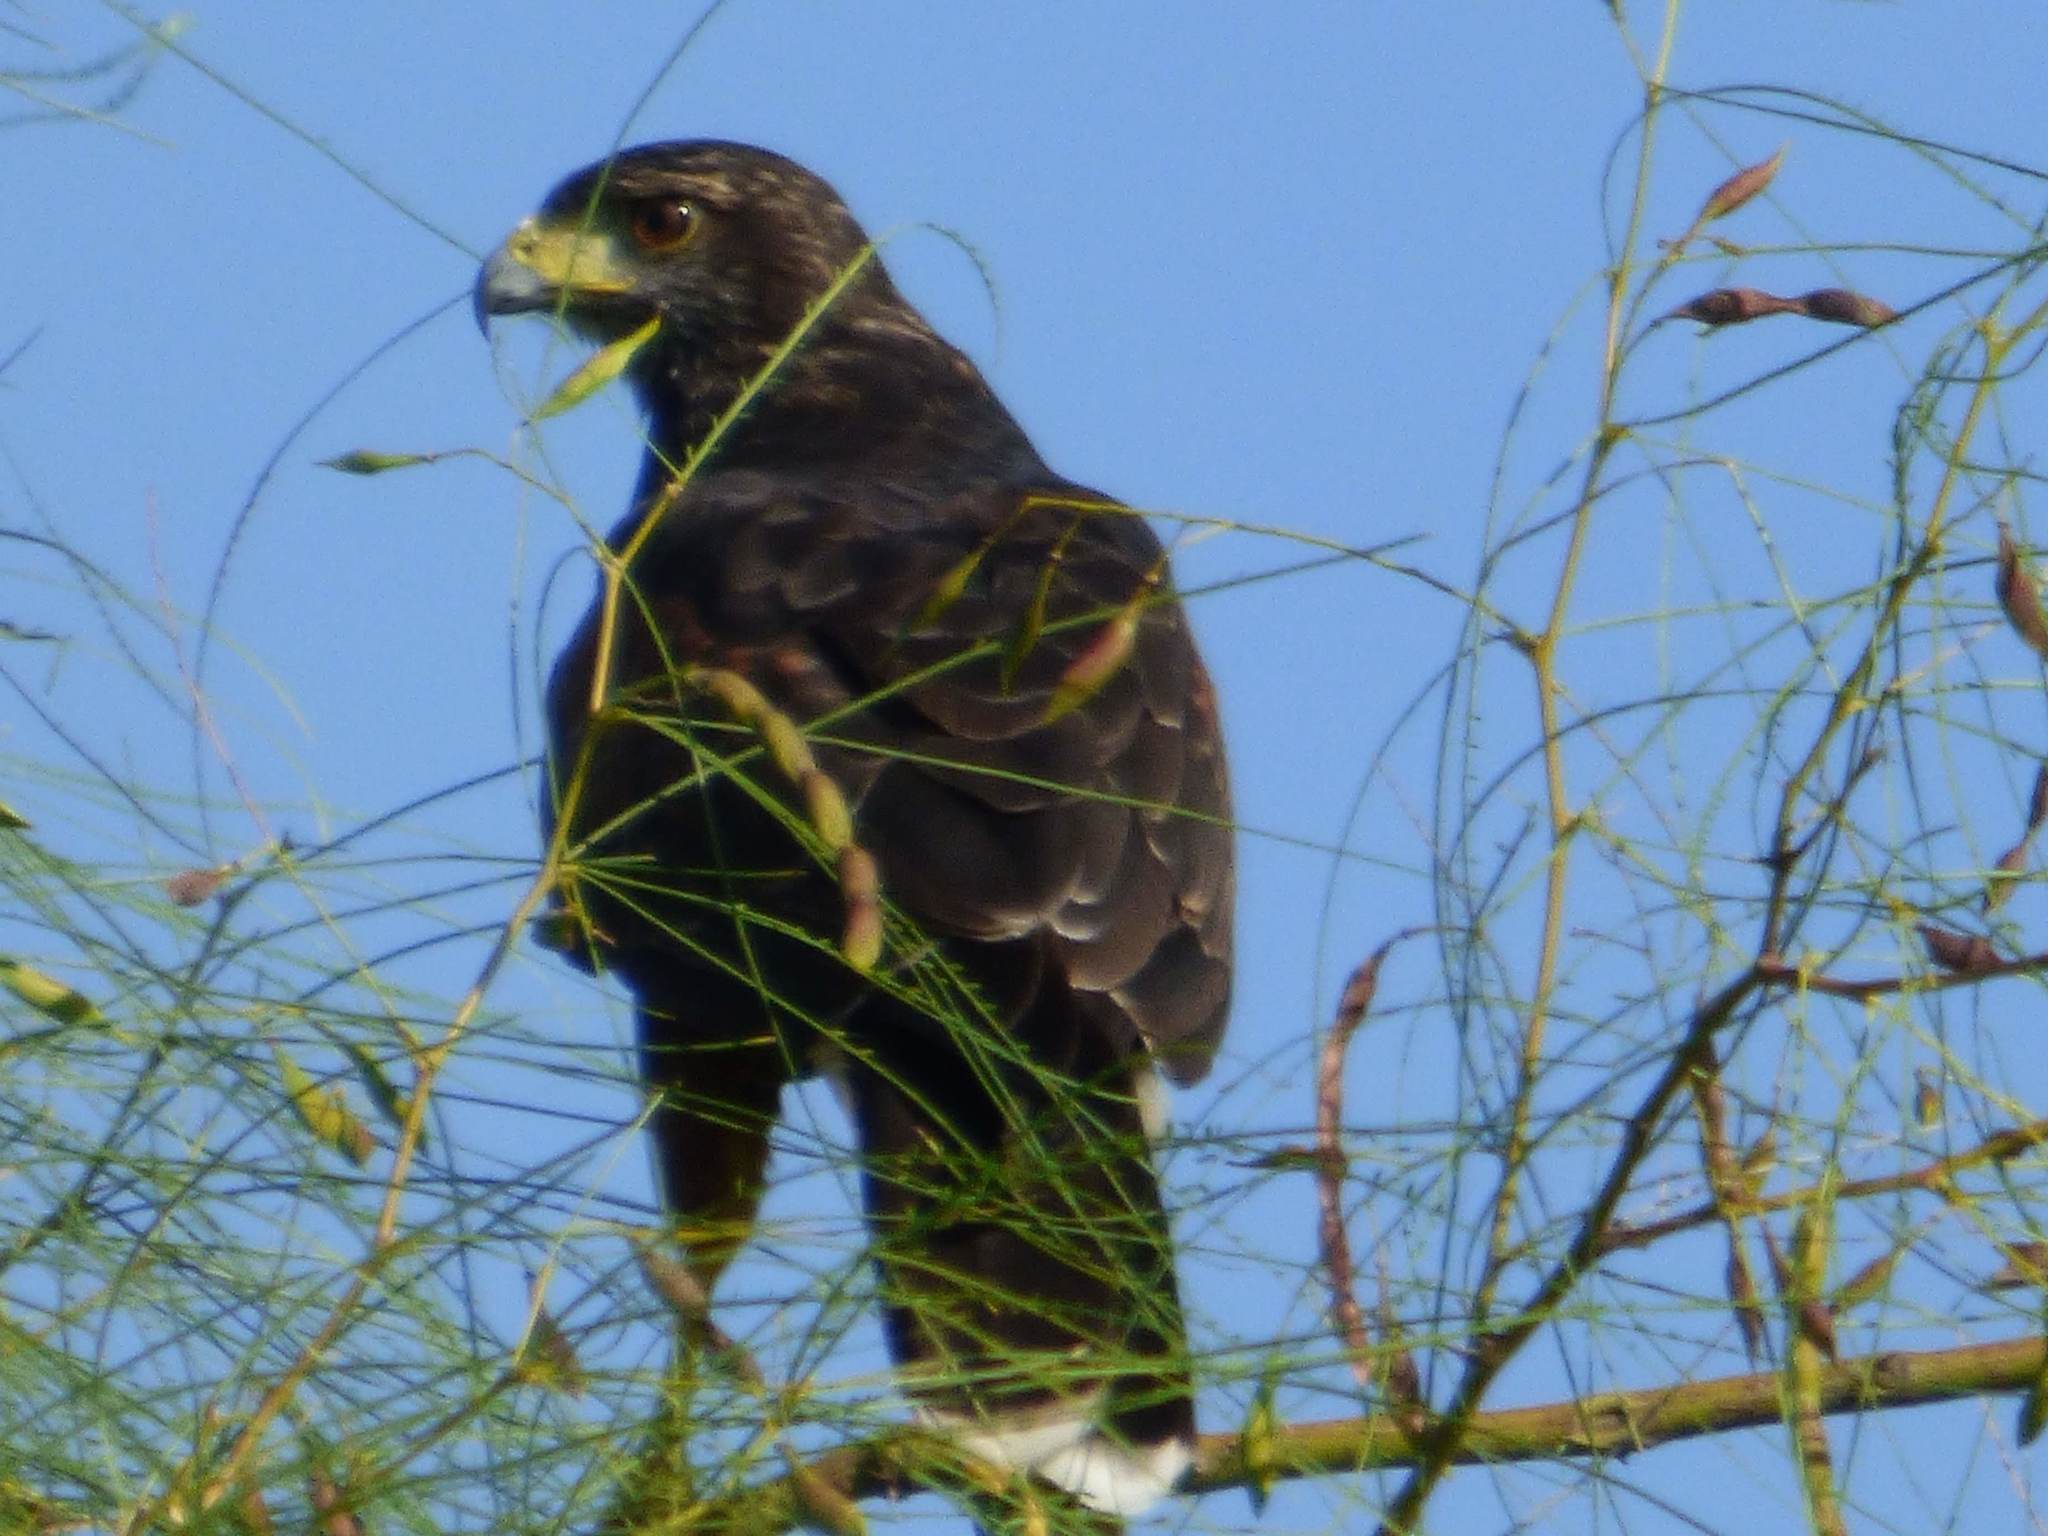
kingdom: Animalia
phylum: Chordata
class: Aves
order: Accipitriformes
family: Accipitridae
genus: Parabuteo
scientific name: Parabuteo unicinctus
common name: Harris's hawk
